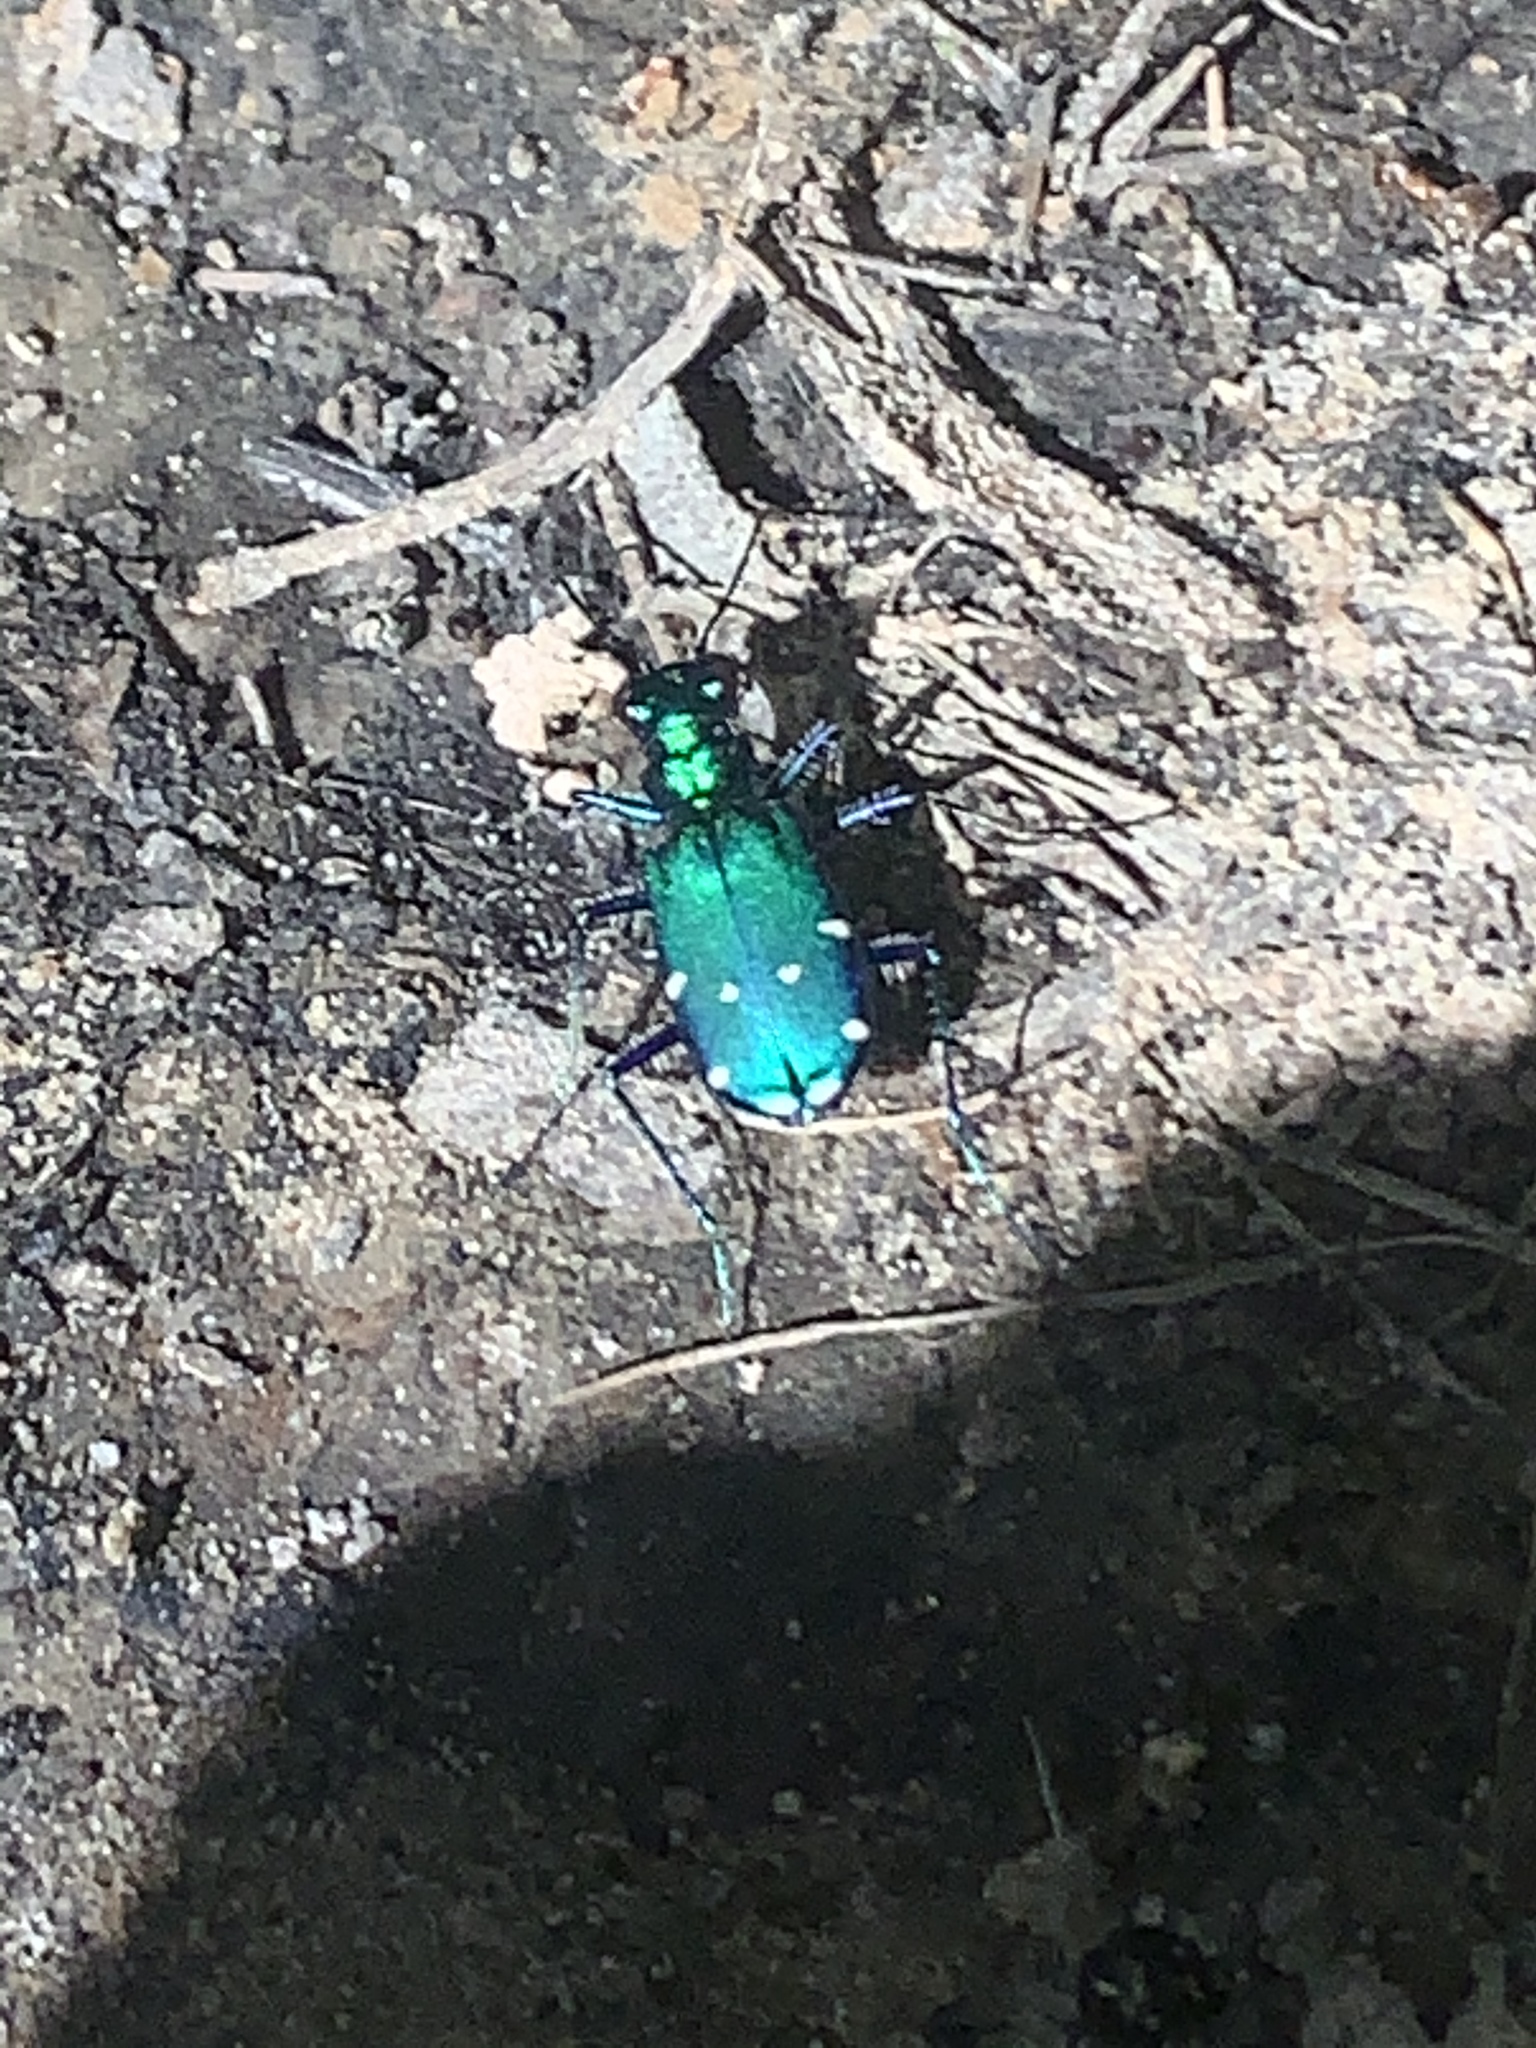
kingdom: Animalia
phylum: Arthropoda
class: Insecta
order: Coleoptera
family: Carabidae
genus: Cicindela
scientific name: Cicindela sexguttata
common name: Six-spotted tiger beetle
